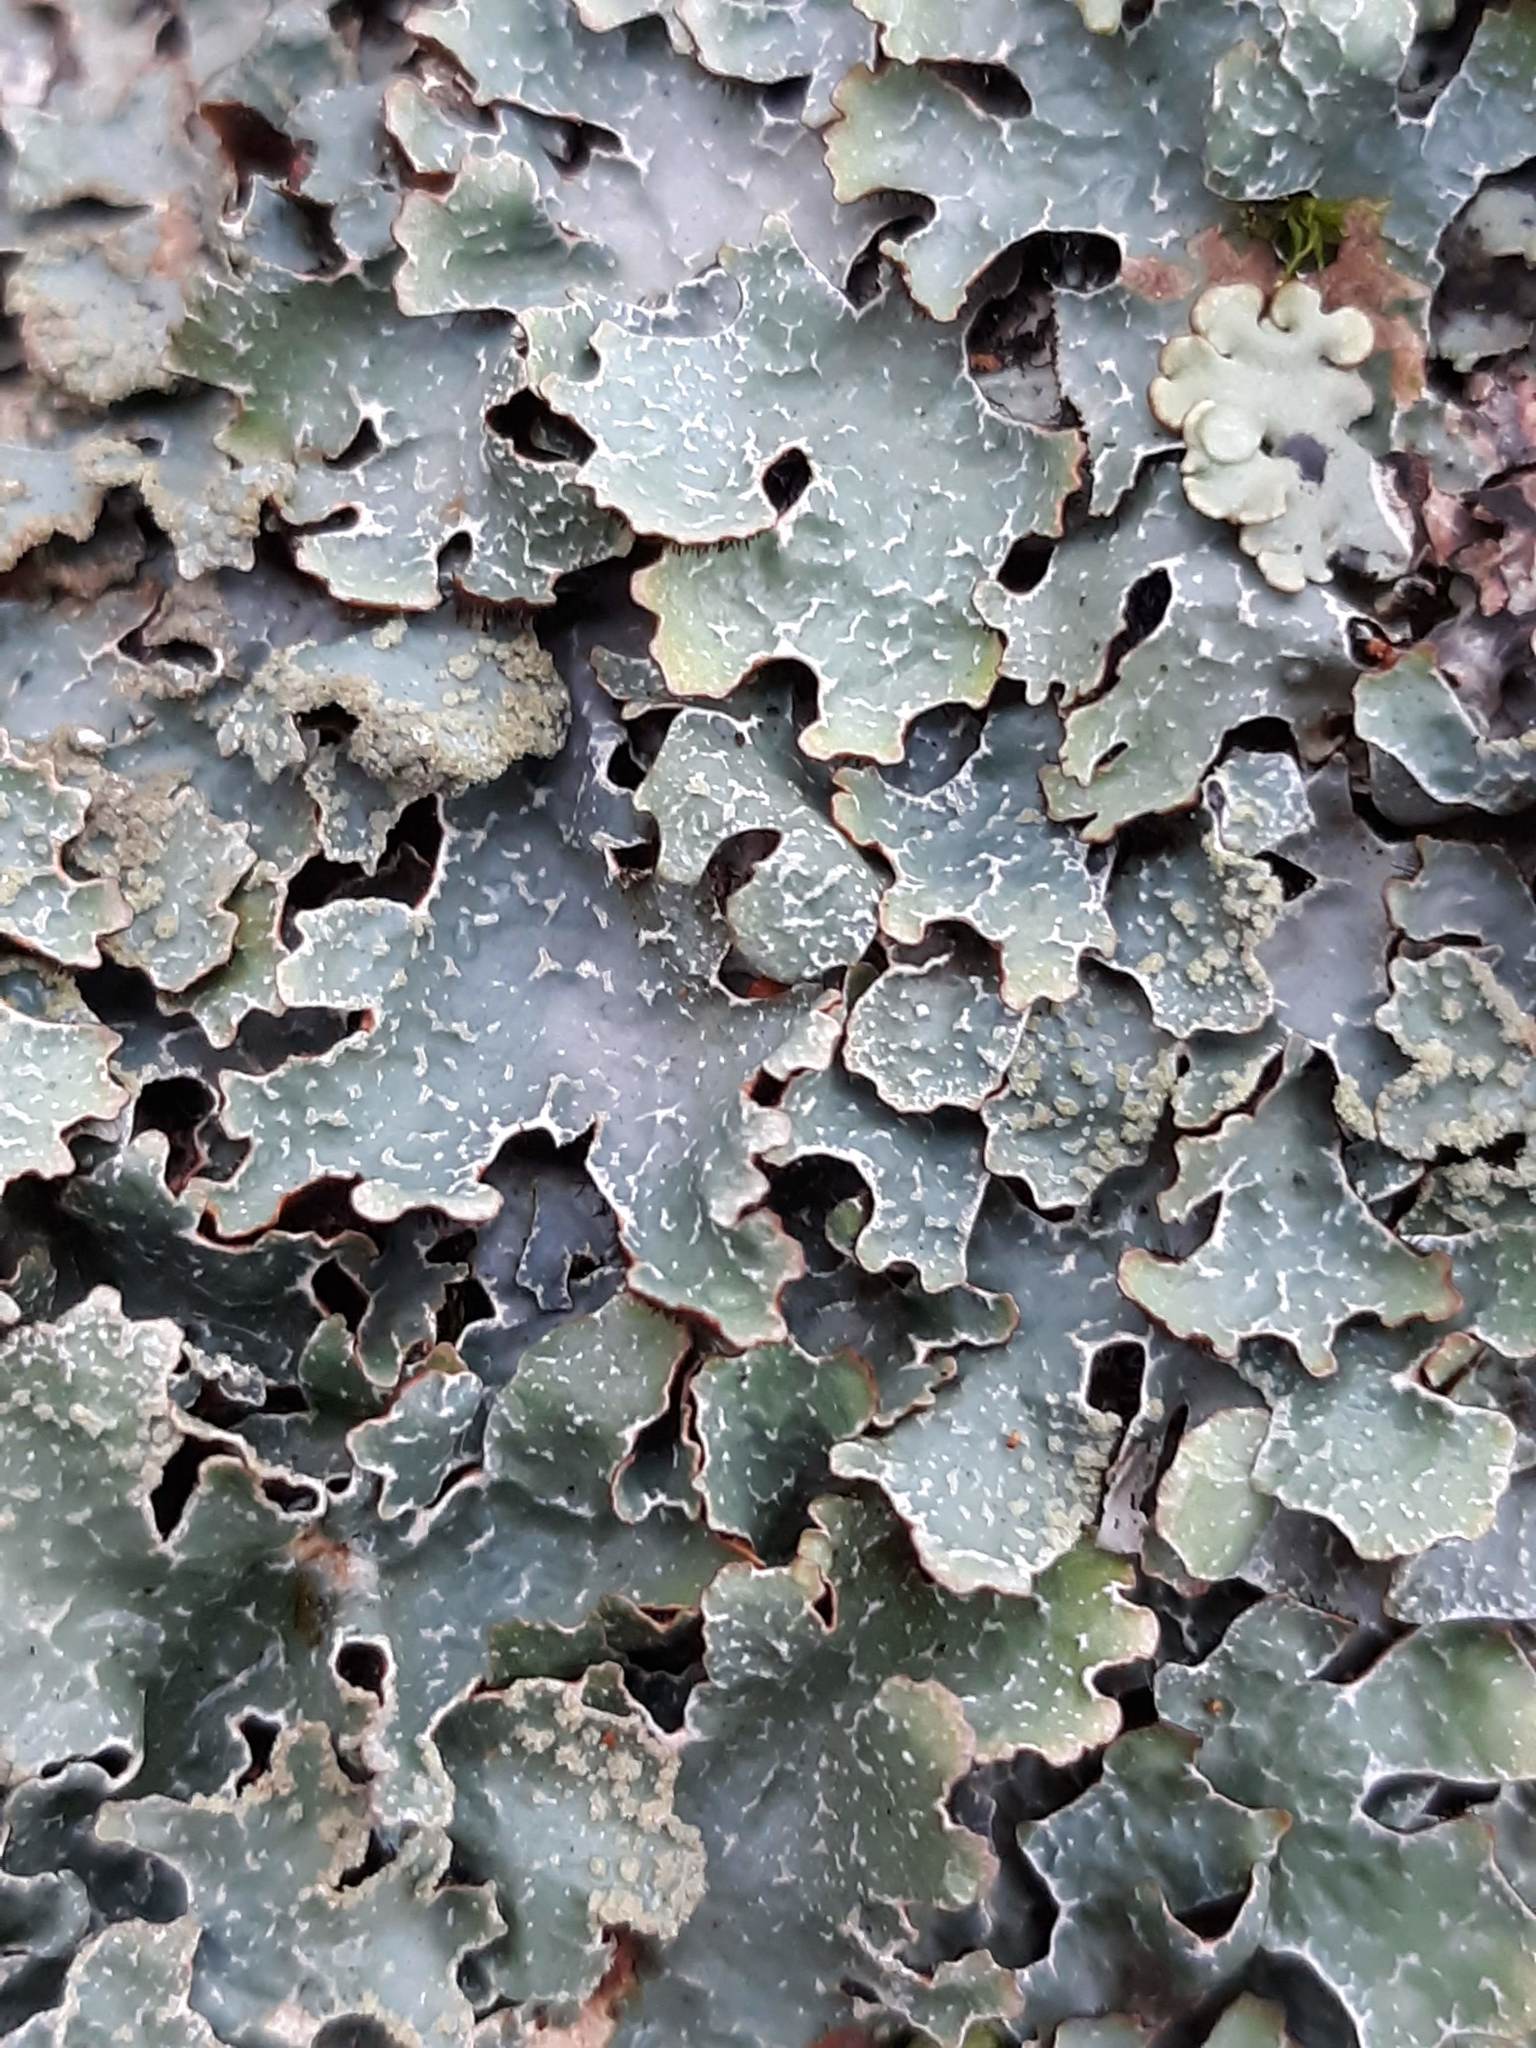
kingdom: Fungi
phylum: Ascomycota
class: Lecanoromycetes
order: Lecanorales
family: Parmeliaceae
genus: Parmelia
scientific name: Parmelia sulcata
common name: Netted shield lichen
